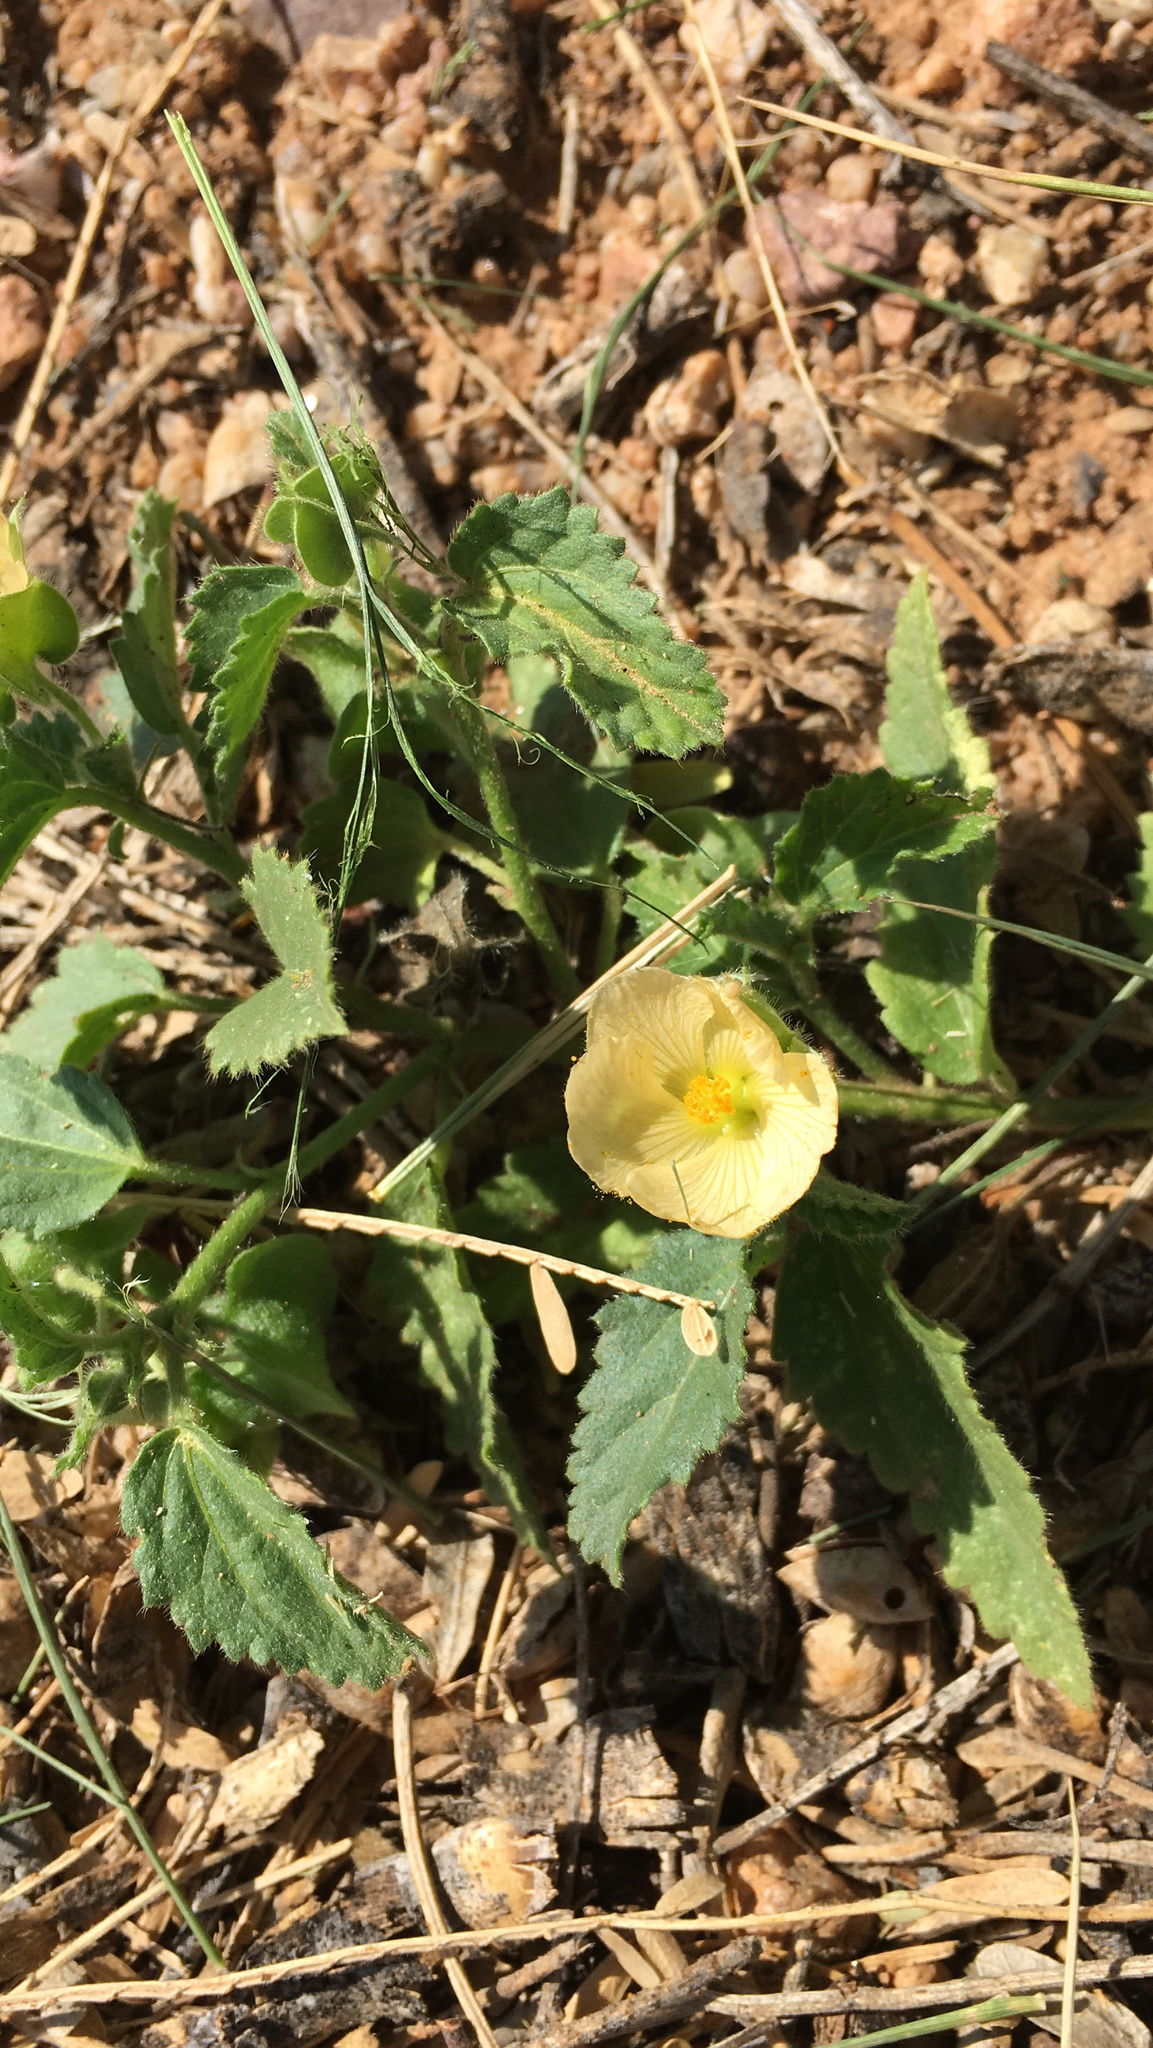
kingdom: Plantae
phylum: Tracheophyta
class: Magnoliopsida
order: Malvales
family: Malvaceae
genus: Rhynchosida
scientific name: Rhynchosida physocalyx
